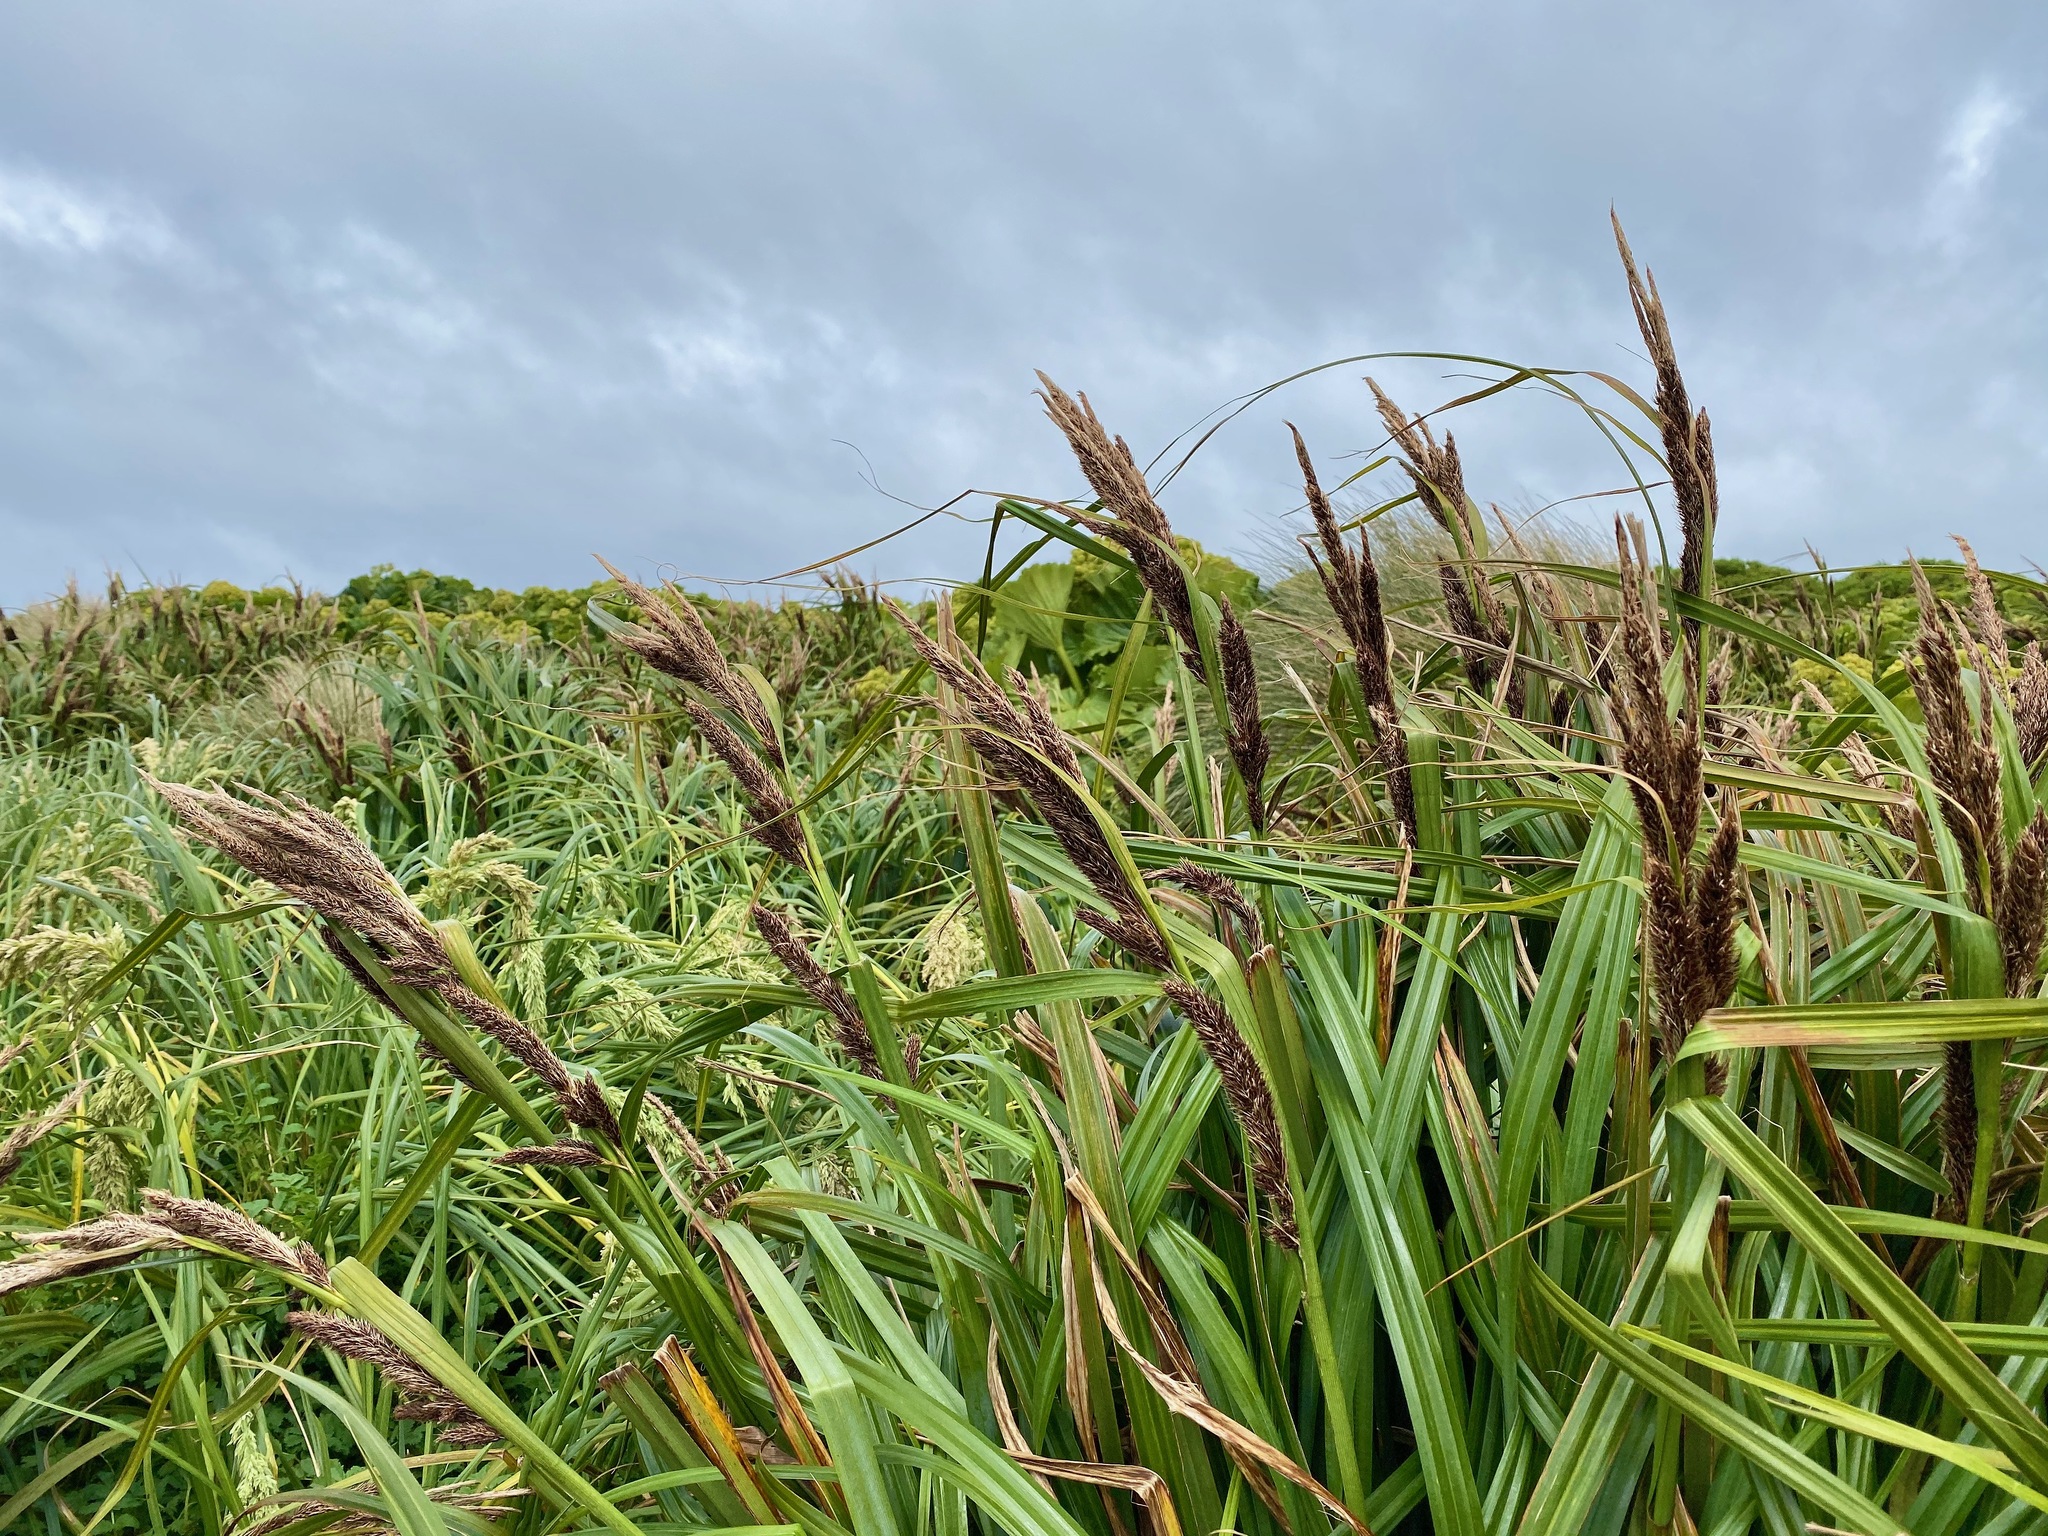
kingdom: Plantae
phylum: Tracheophyta
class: Liliopsida
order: Poales
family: Cyperaceae
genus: Carex
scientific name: Carex trifida
